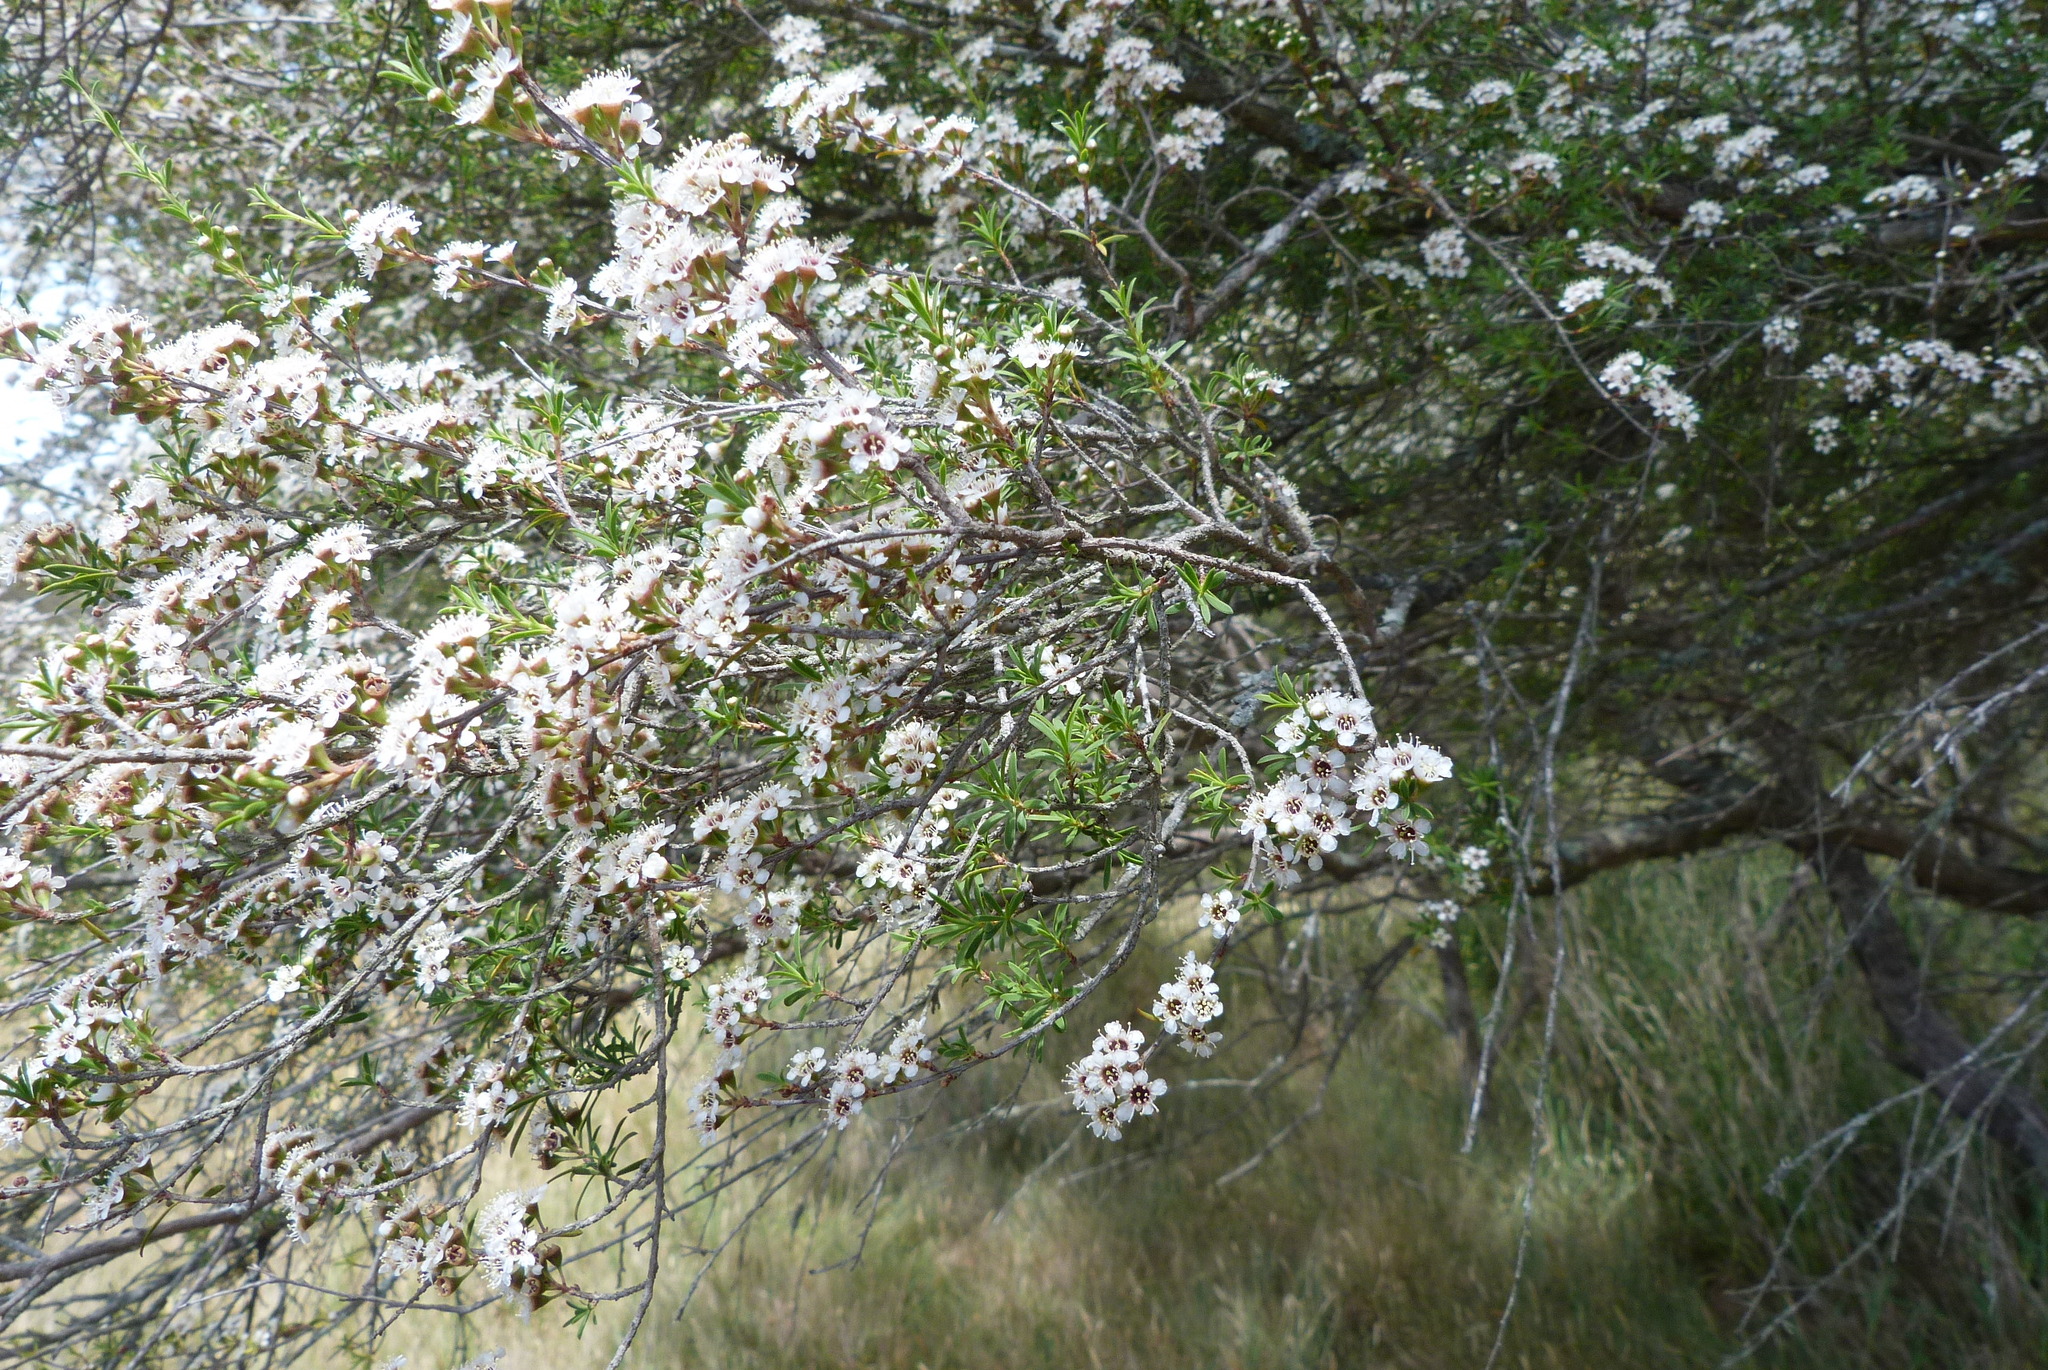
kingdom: Plantae
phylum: Tracheophyta
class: Magnoliopsida
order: Myrtales
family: Myrtaceae
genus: Kunzea
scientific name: Kunzea ericoides
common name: Burgan
